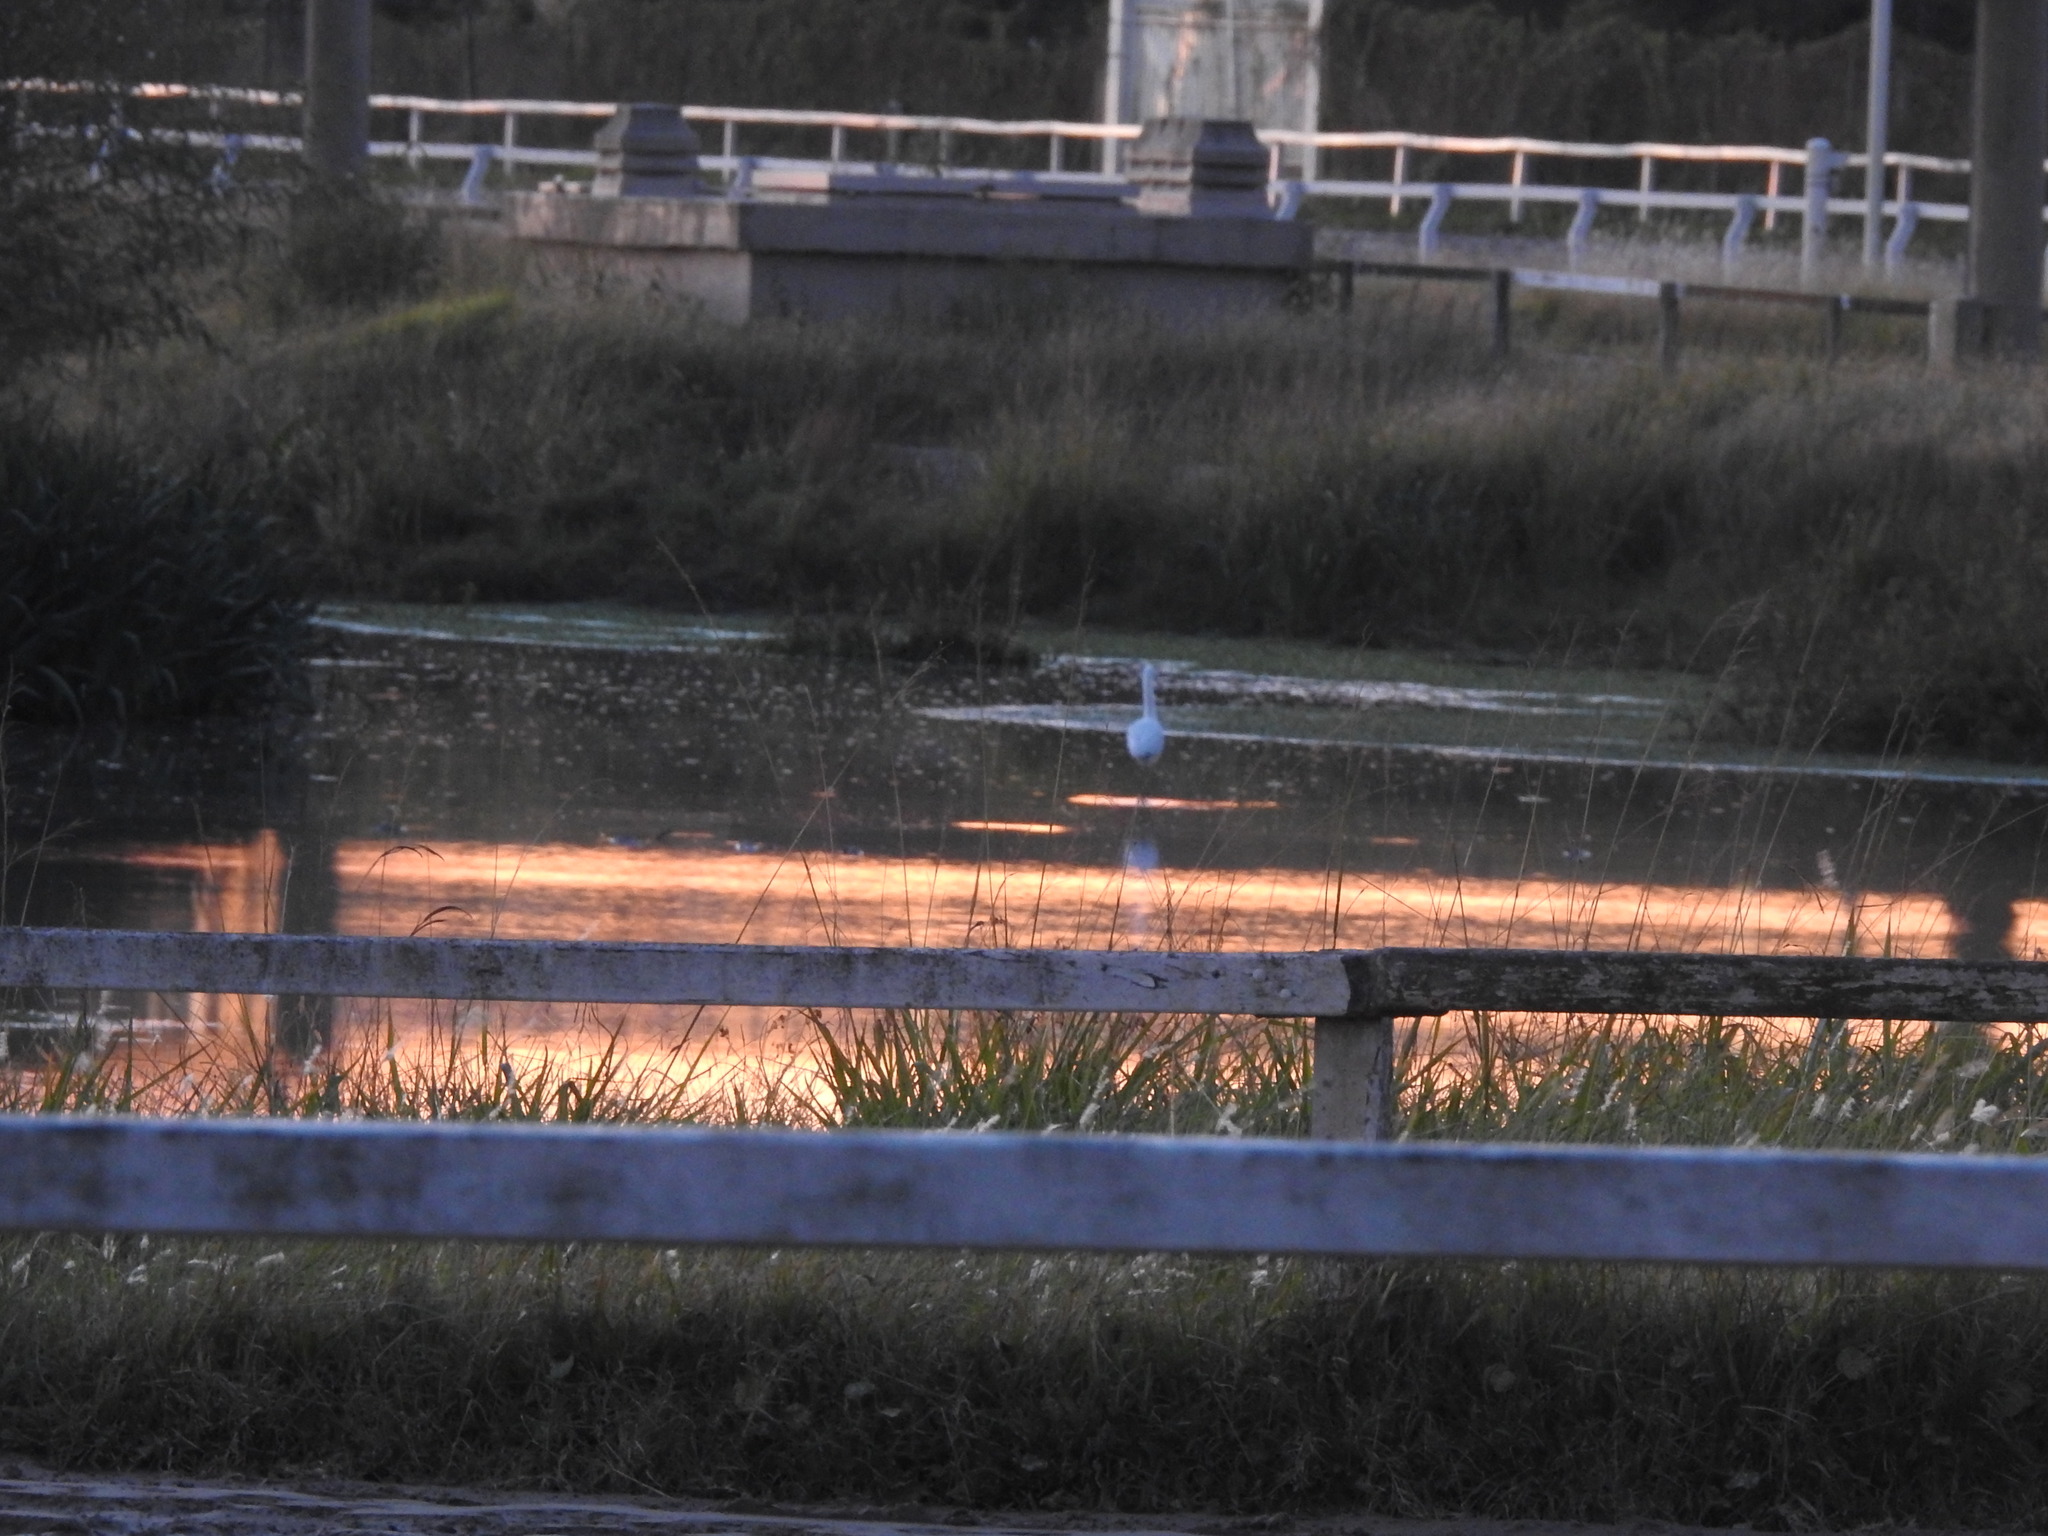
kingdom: Animalia
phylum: Chordata
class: Aves
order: Pelecaniformes
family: Ardeidae
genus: Ardea
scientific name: Ardea alba
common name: Great egret
